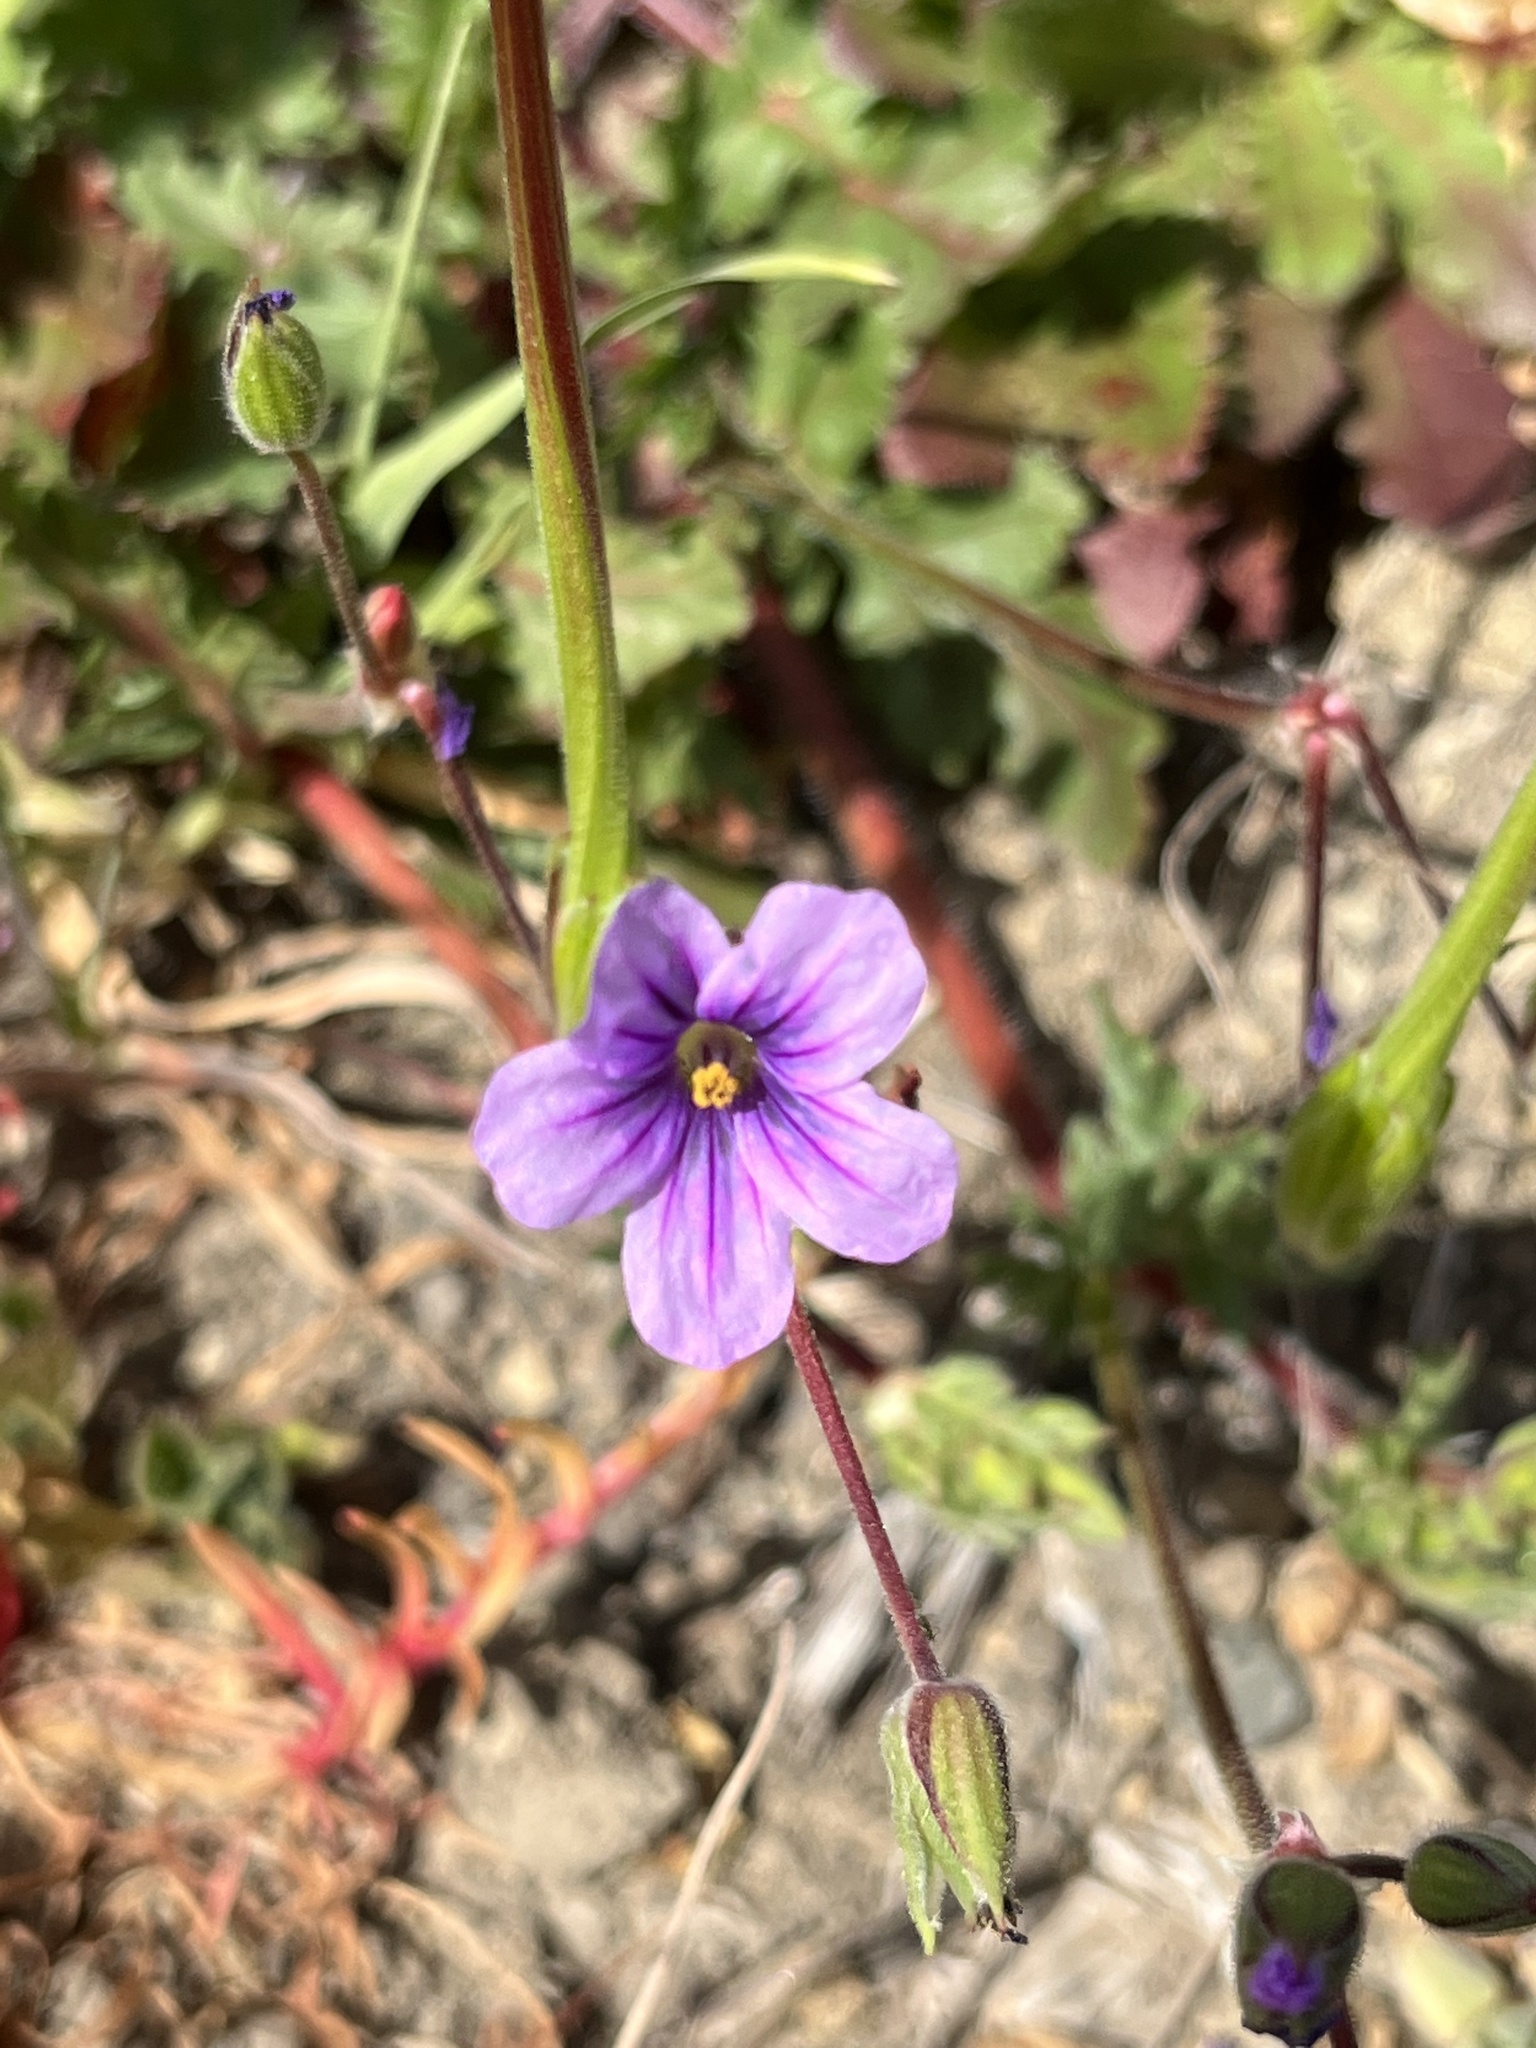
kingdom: Plantae
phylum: Tracheophyta
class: Magnoliopsida
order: Geraniales
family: Geraniaceae
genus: Erodium
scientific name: Erodium botrys
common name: Mediterranean stork's-bill
